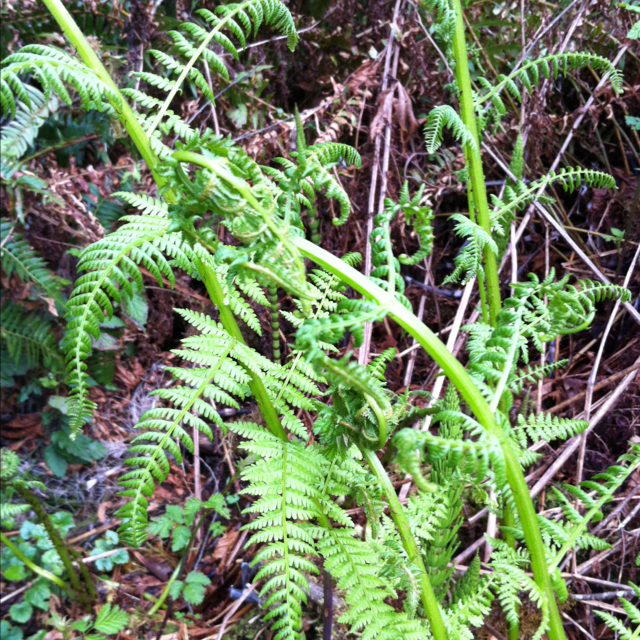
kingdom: Plantae
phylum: Tracheophyta
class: Polypodiopsida
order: Polypodiales
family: Athyriaceae
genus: Athyrium
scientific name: Athyrium filix-femina
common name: Lady fern
